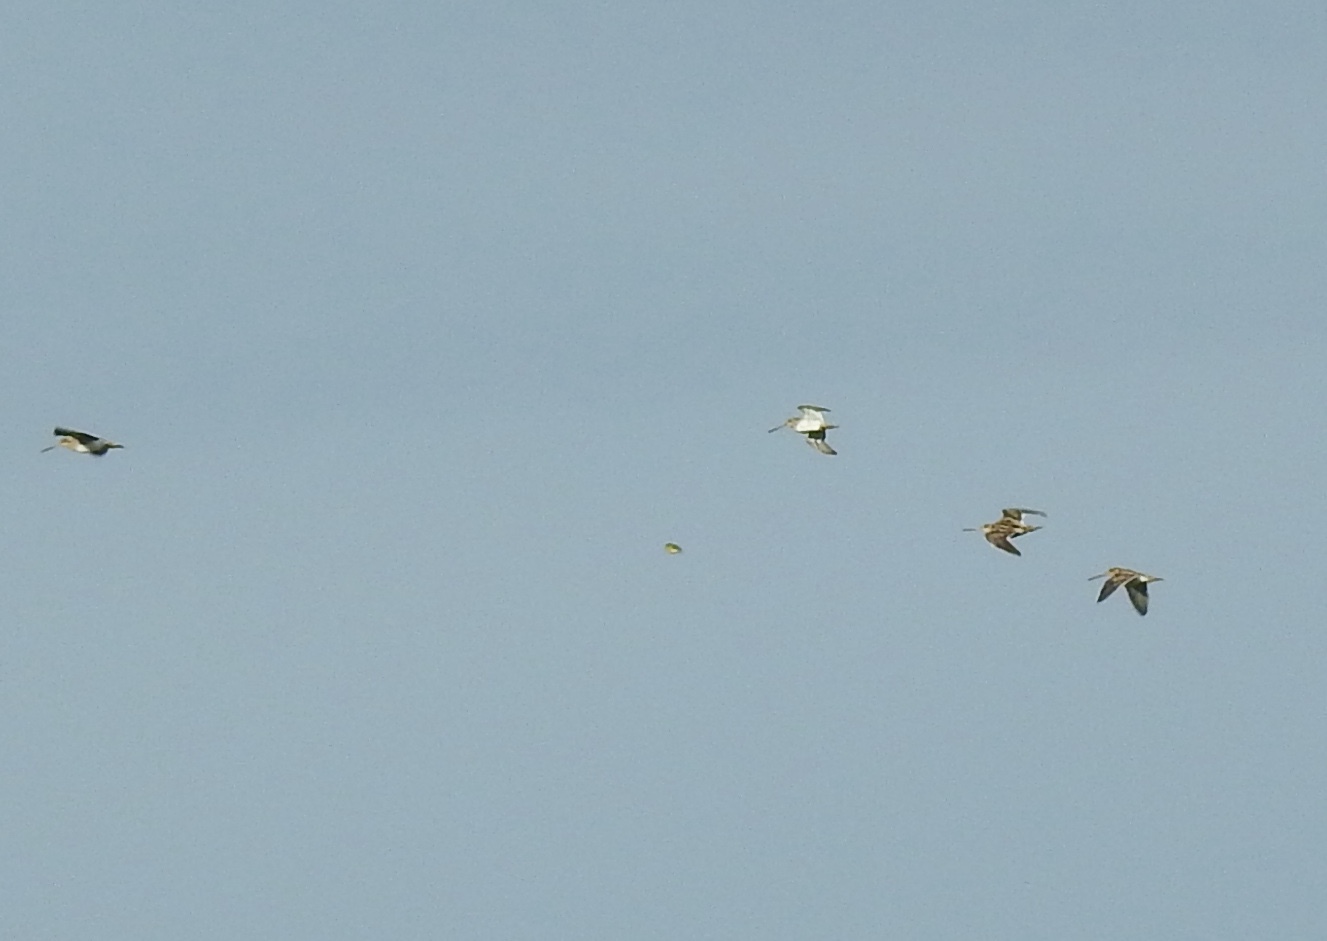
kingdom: Animalia
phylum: Chordata
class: Aves
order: Charadriiformes
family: Scolopacidae
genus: Gallinago
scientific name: Gallinago gallinago
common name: Common snipe
